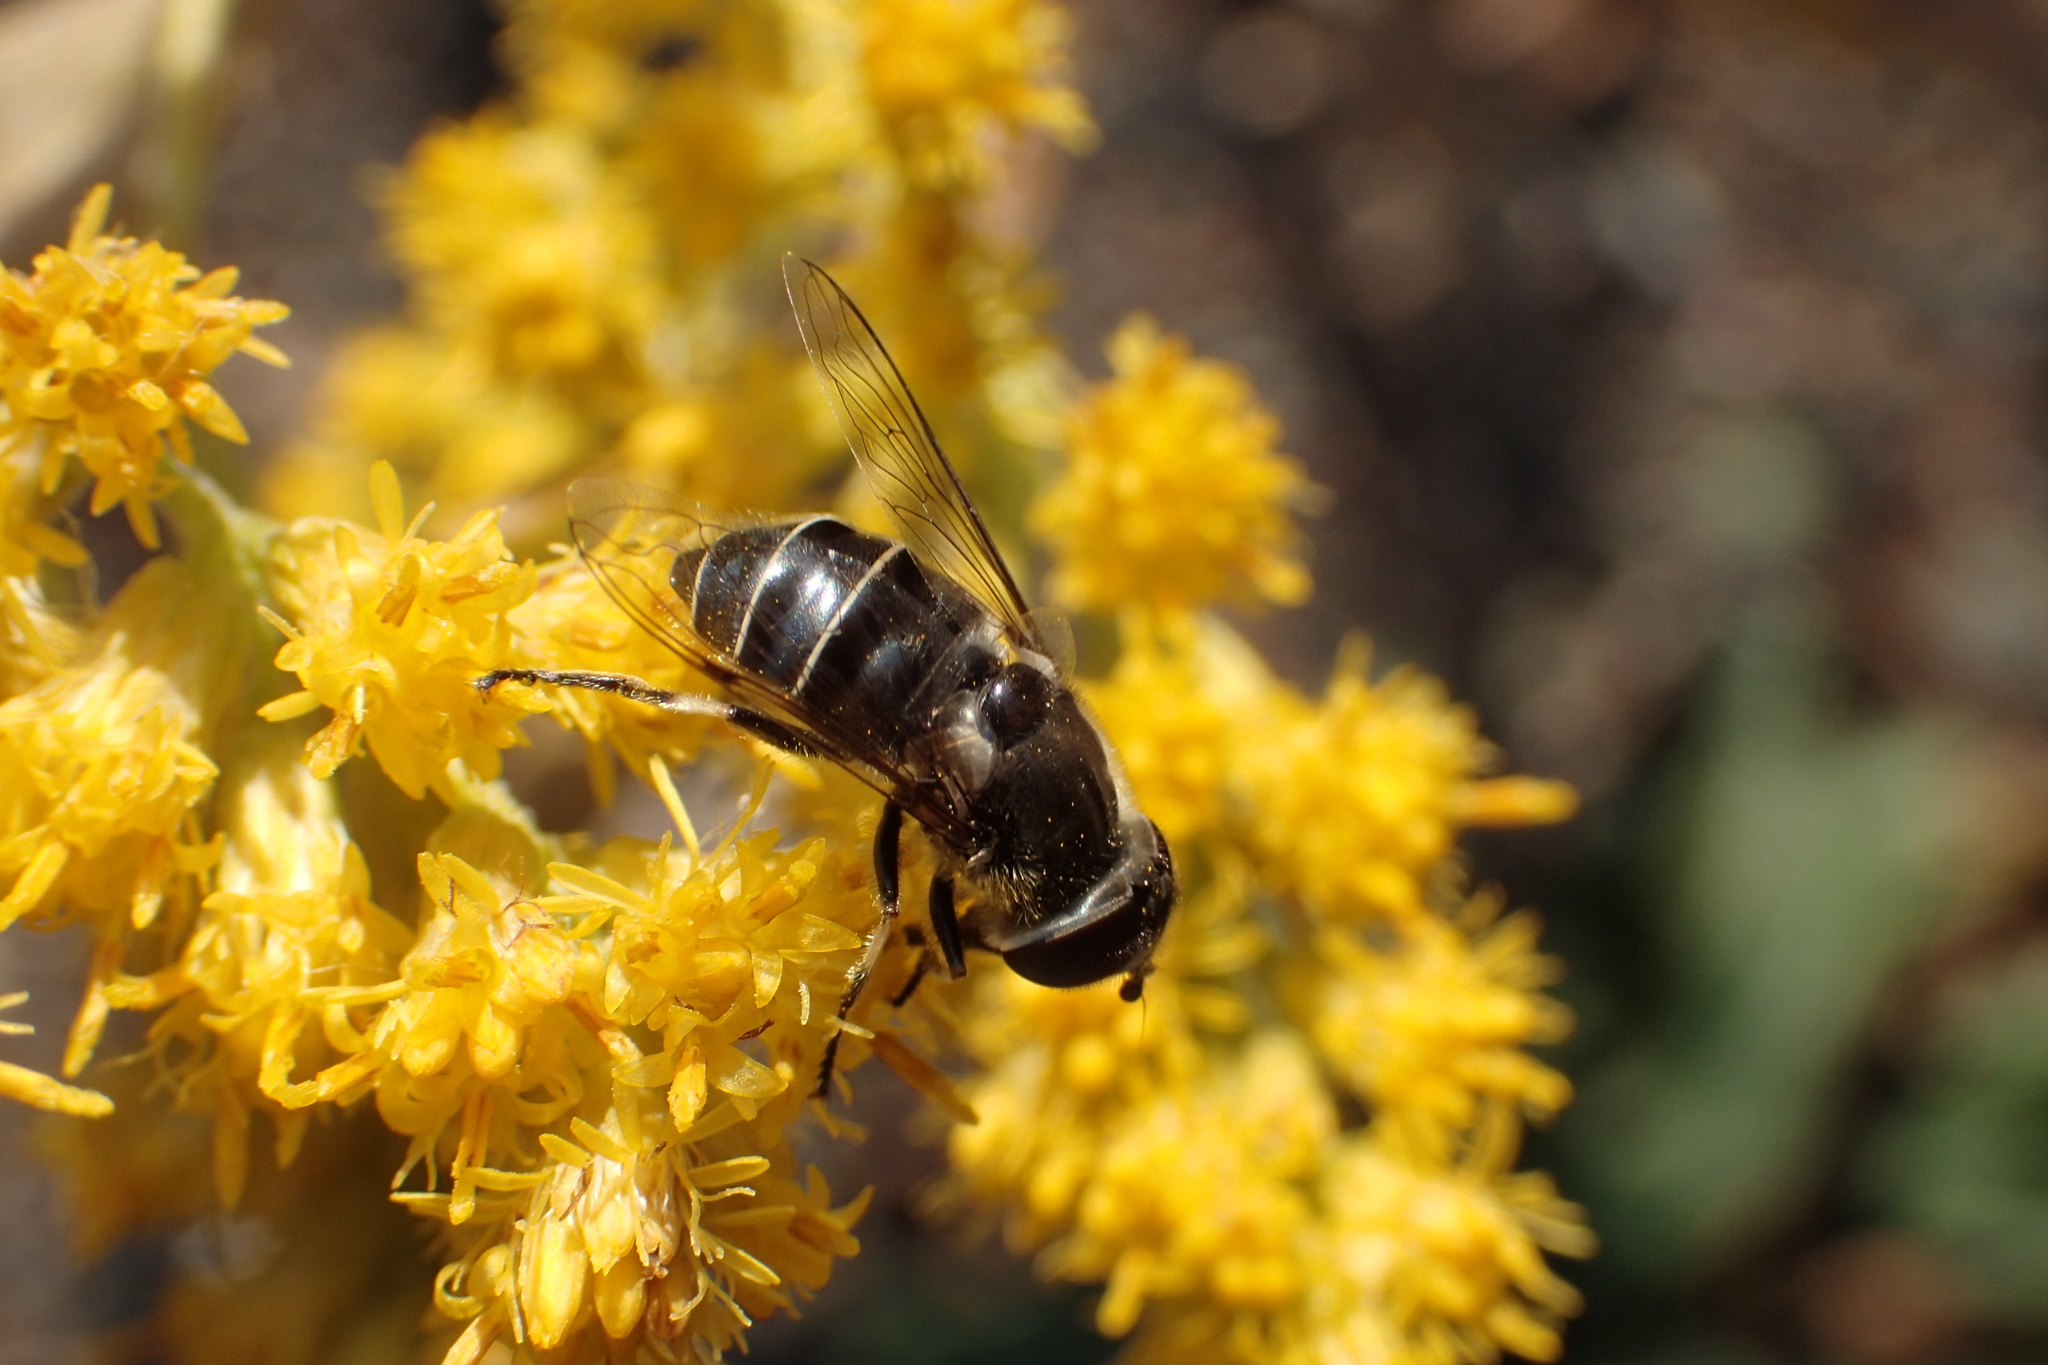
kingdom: Animalia
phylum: Arthropoda
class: Insecta
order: Diptera
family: Syrphidae
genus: Eristalis
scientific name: Eristalis dimidiata
